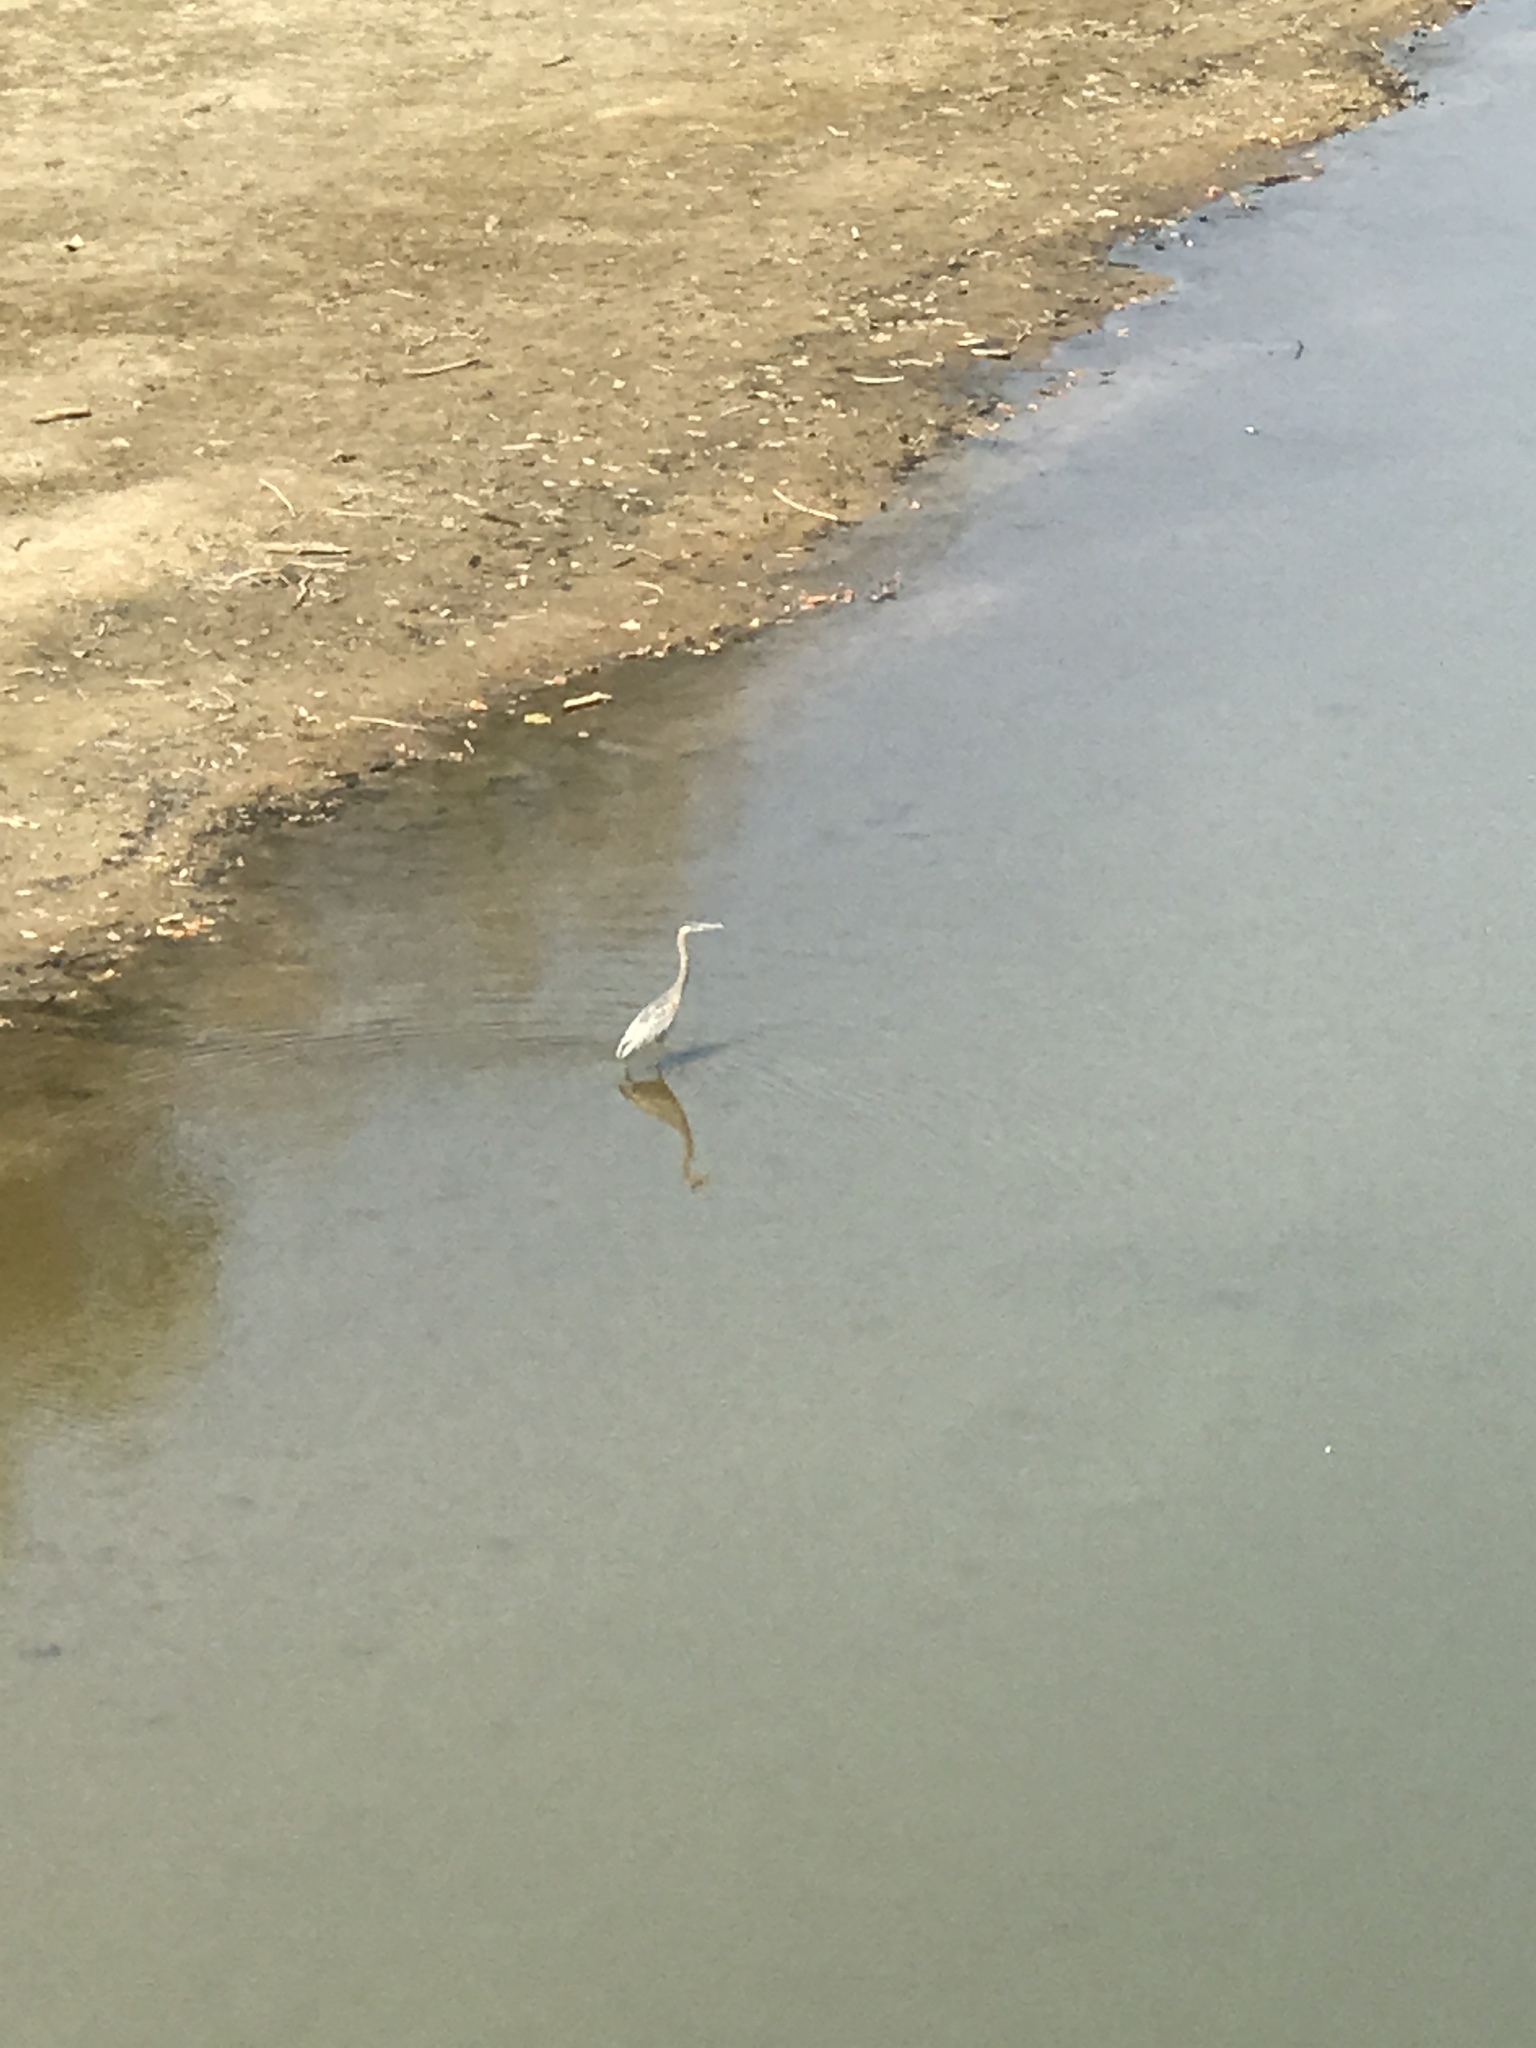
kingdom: Animalia
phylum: Chordata
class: Aves
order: Pelecaniformes
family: Ardeidae
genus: Ardea
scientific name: Ardea herodias
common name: Great blue heron
